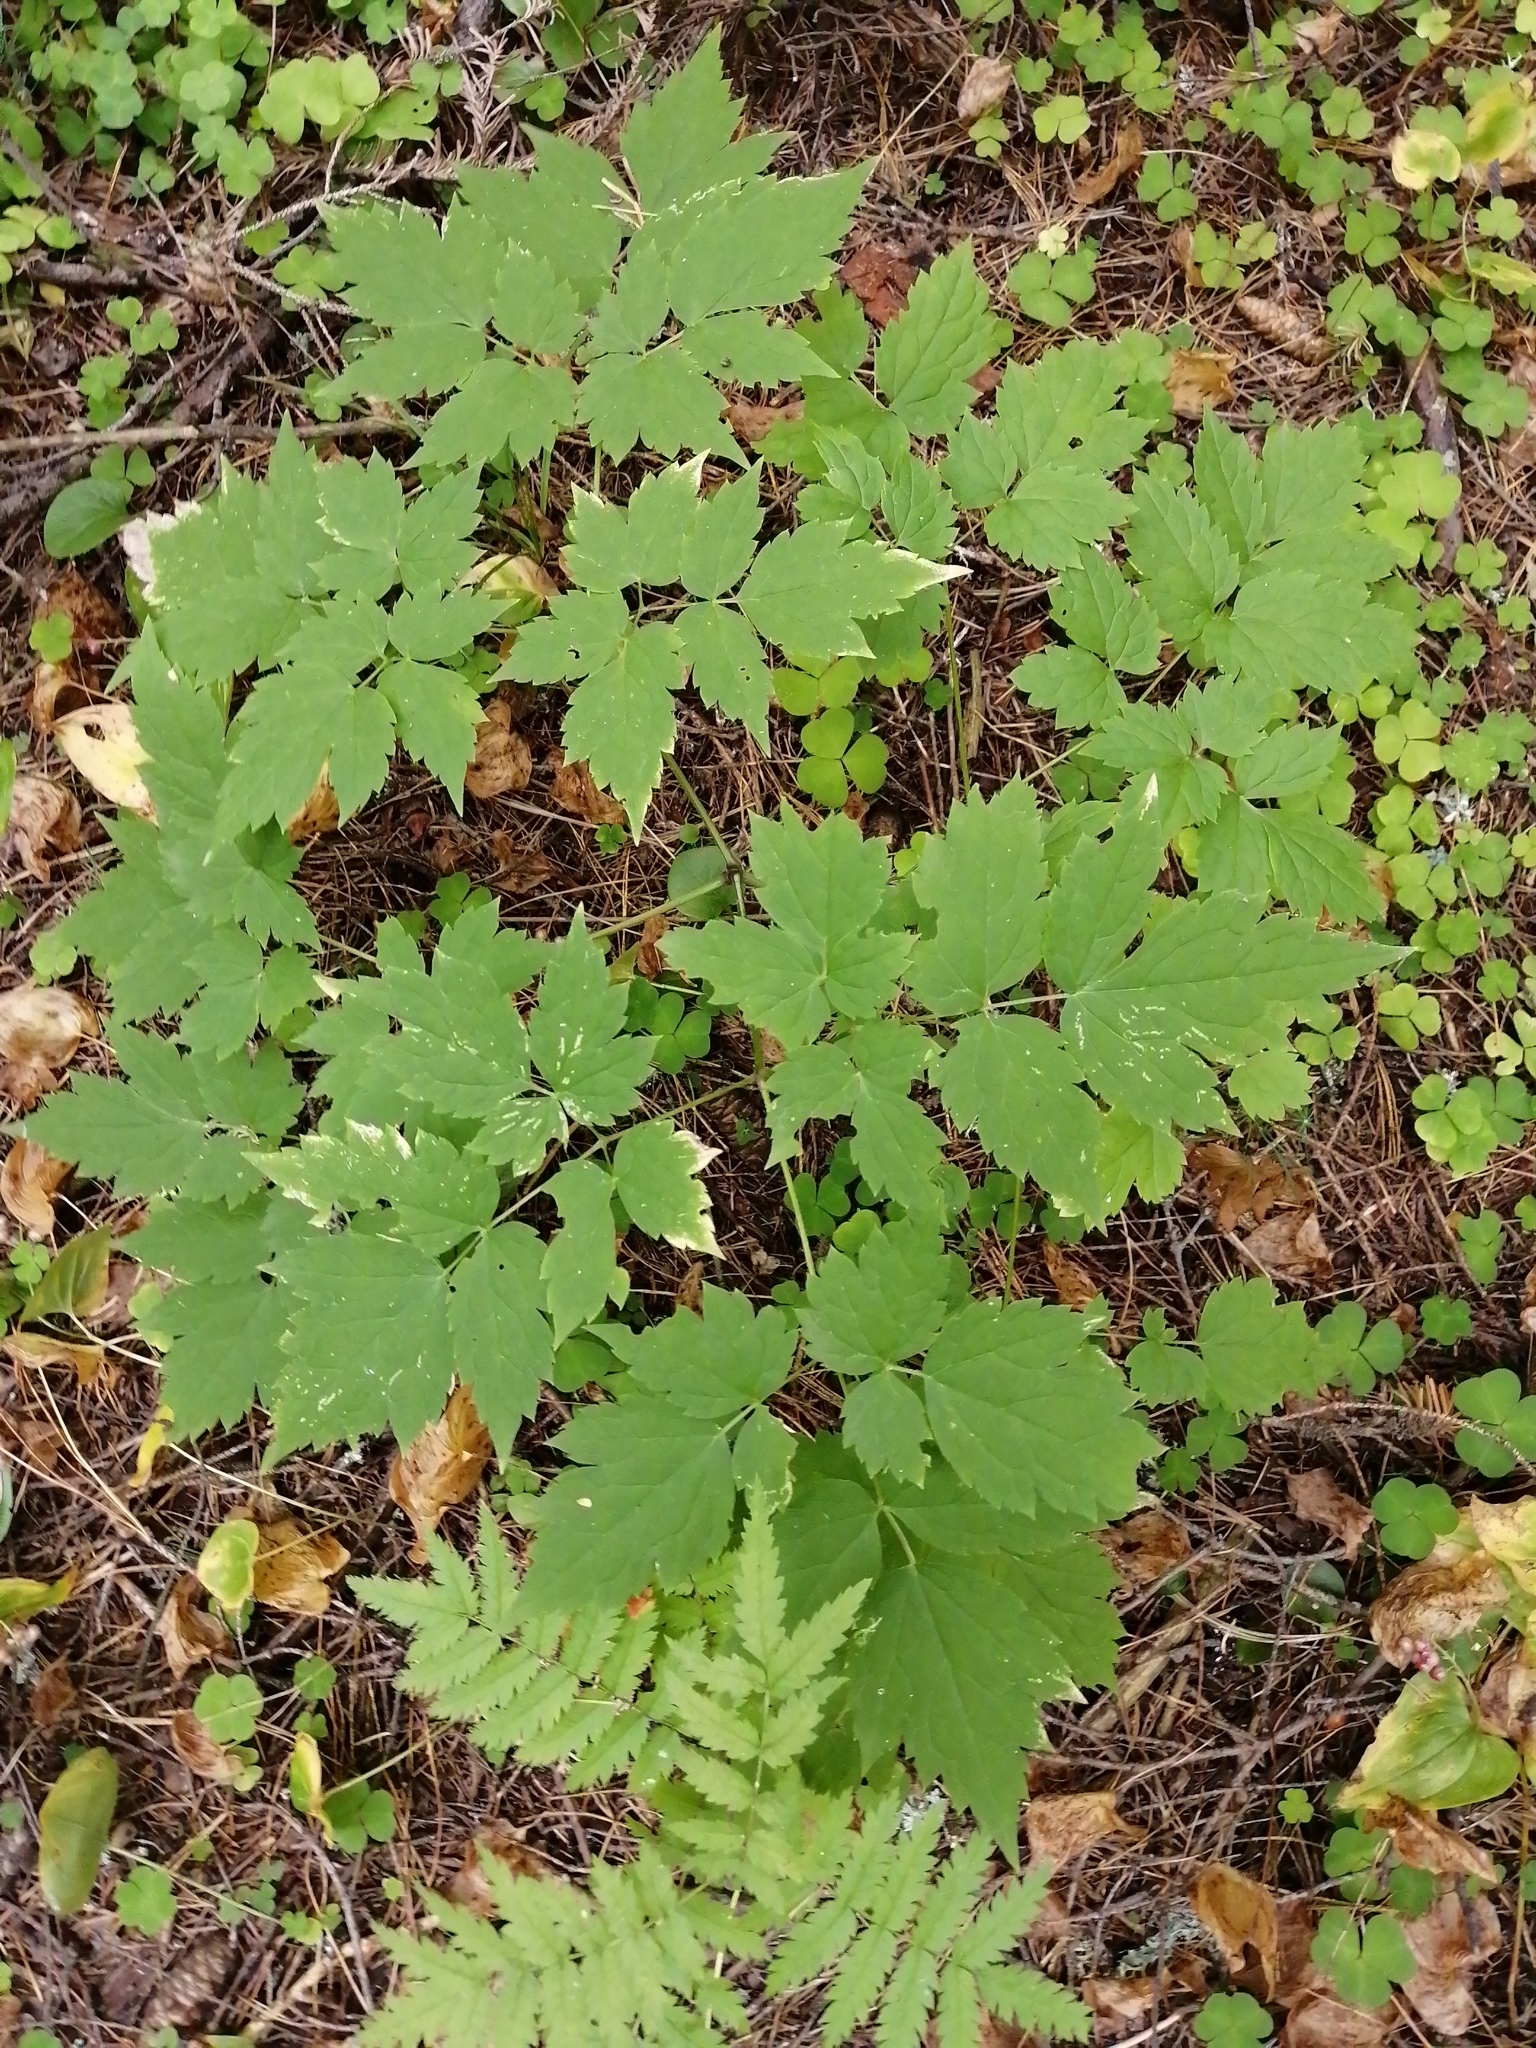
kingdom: Plantae
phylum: Tracheophyta
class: Magnoliopsida
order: Ranunculales
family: Ranunculaceae
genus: Actaea
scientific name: Actaea erythrocarpa
